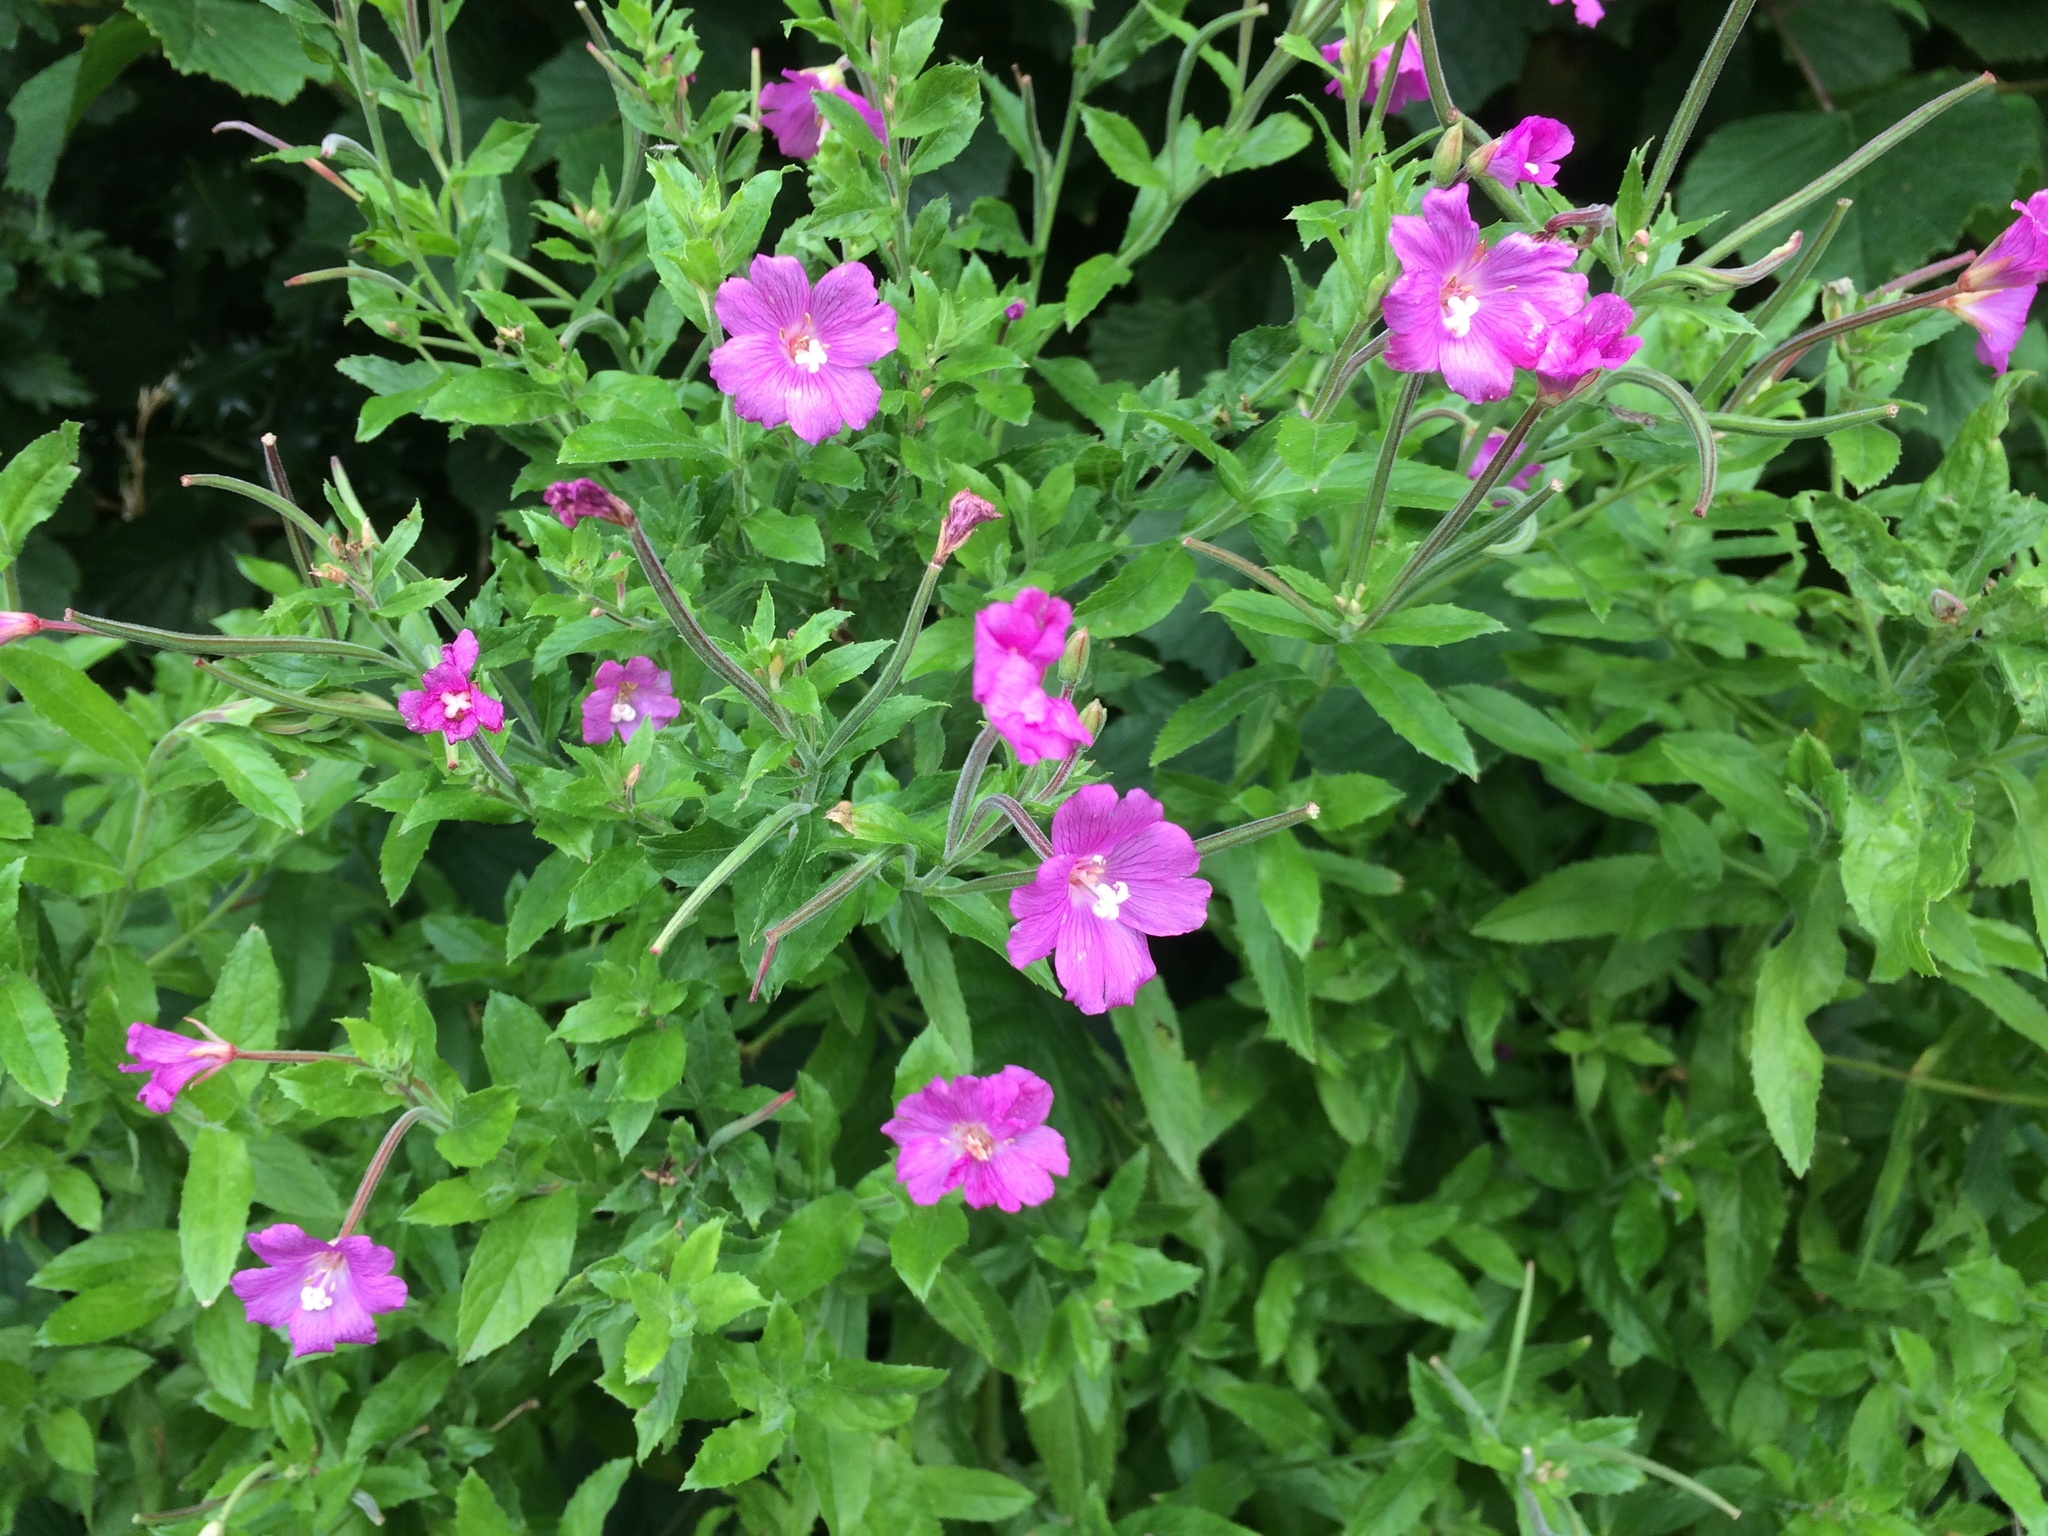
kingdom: Plantae
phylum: Tracheophyta
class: Magnoliopsida
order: Myrtales
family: Onagraceae
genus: Epilobium
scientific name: Epilobium hirsutum
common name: Great willowherb
